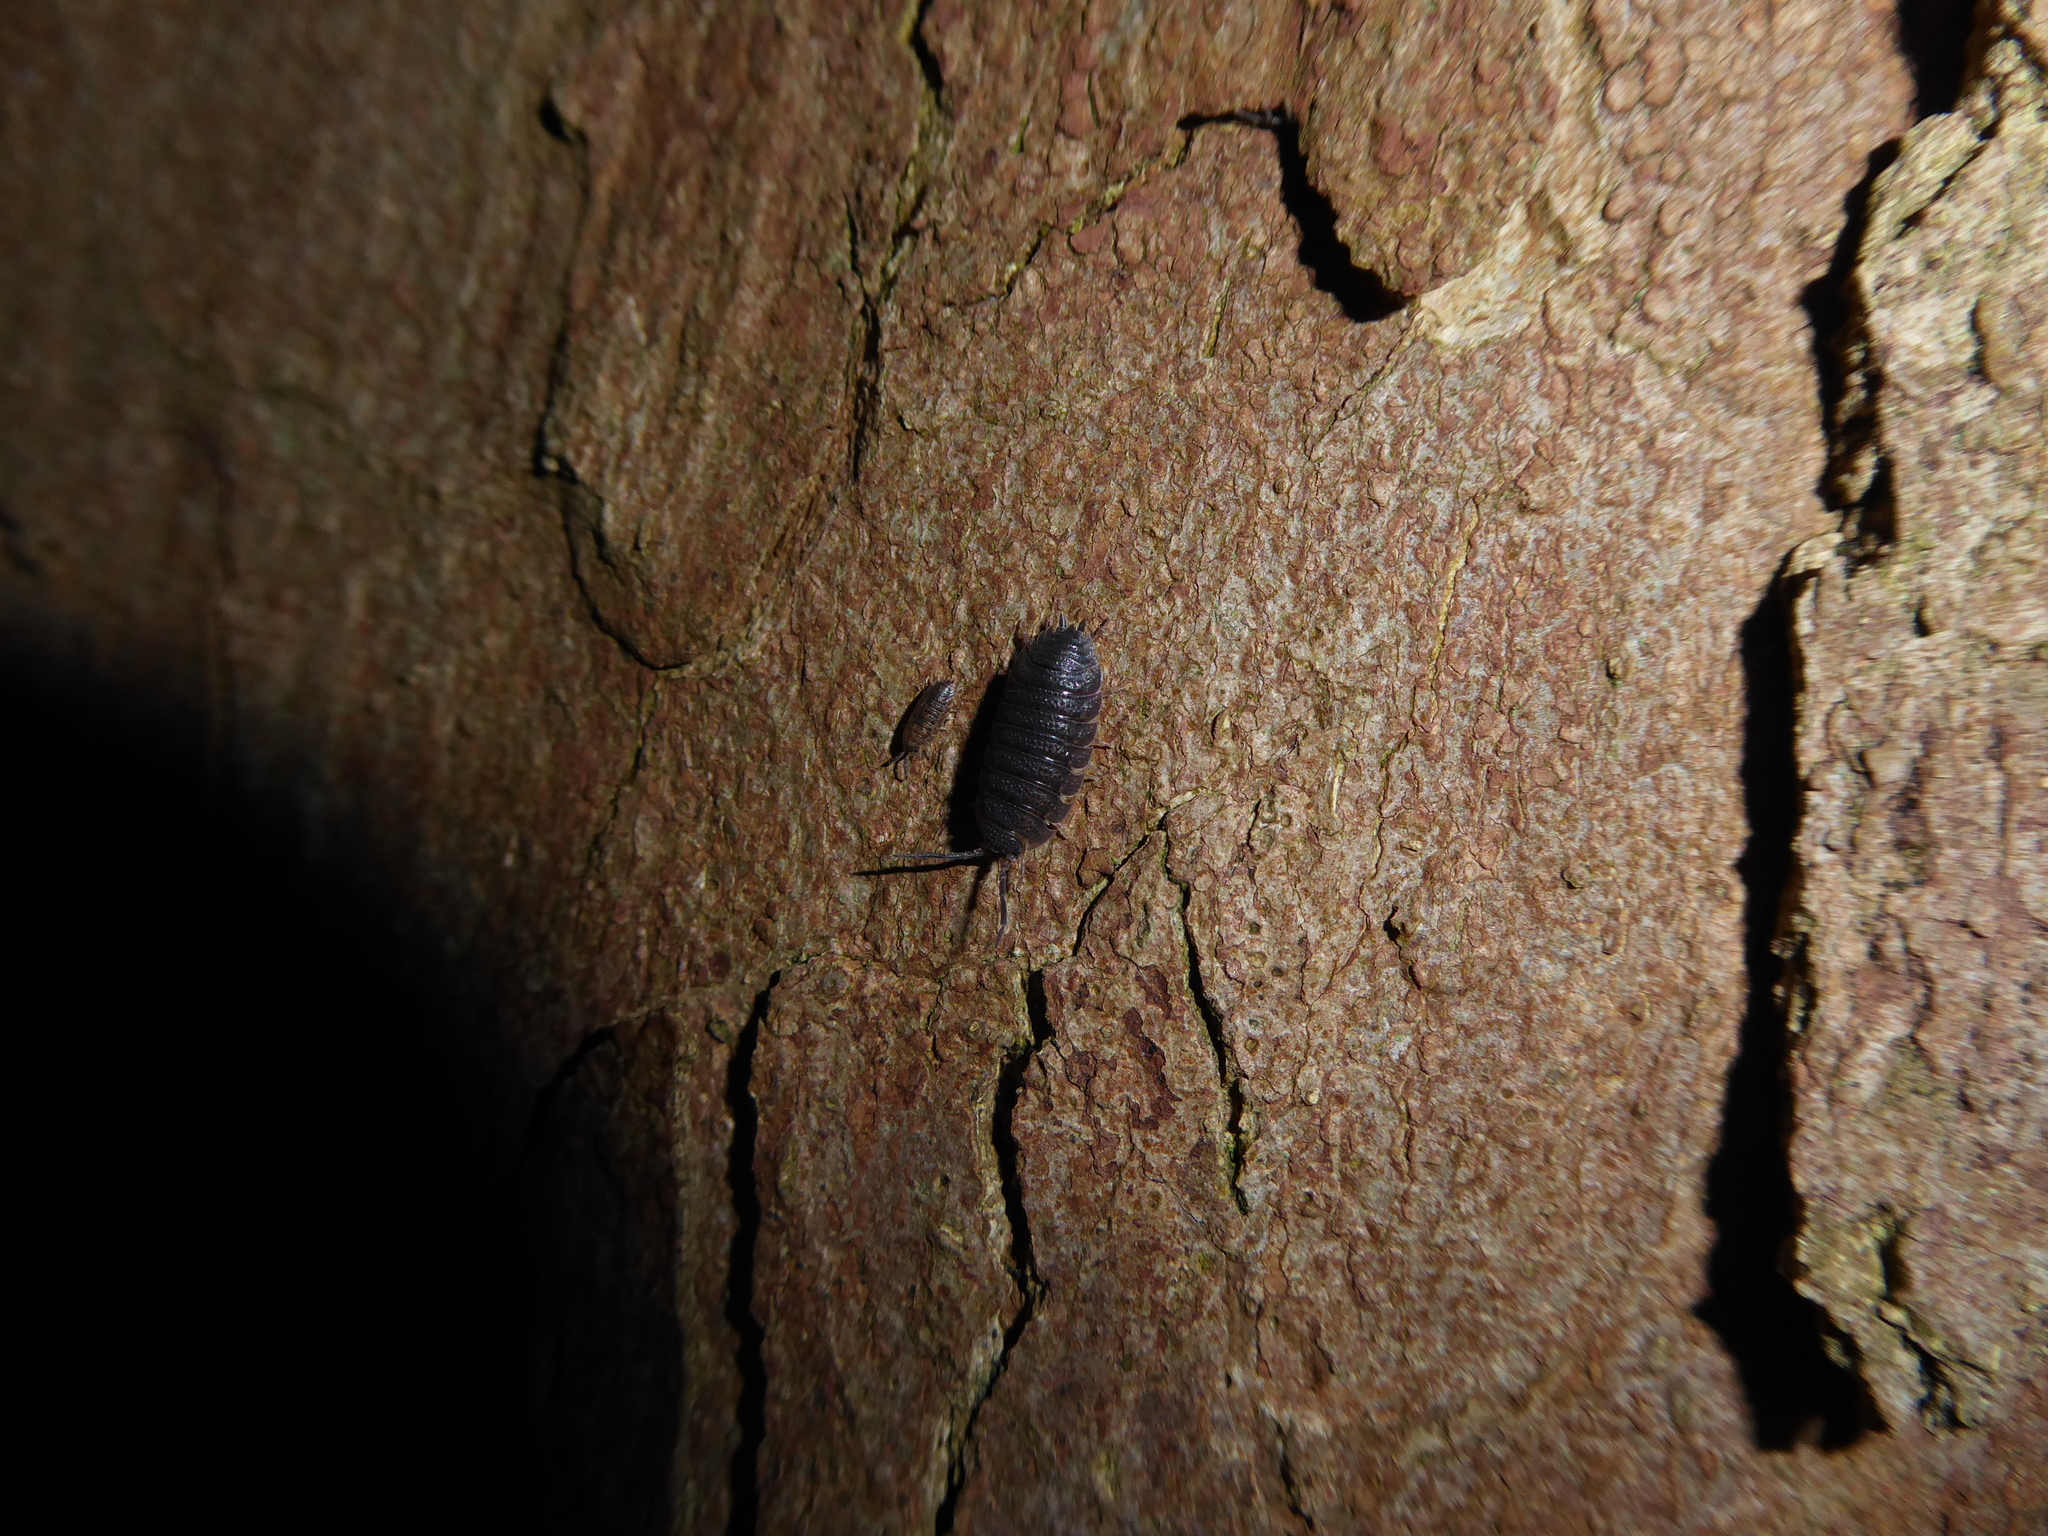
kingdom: Animalia
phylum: Arthropoda
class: Malacostraca
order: Isopoda
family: Porcellionidae
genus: Porcellio
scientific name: Porcellio scaber
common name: Common rough woodlouse
